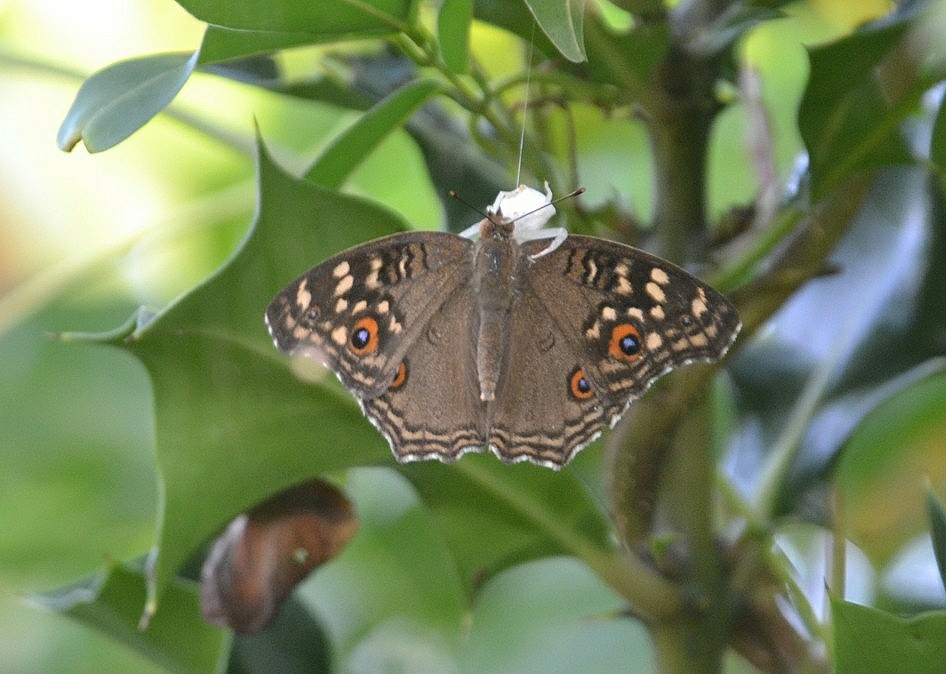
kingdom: Animalia
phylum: Arthropoda
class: Insecta
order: Lepidoptera
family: Nymphalidae
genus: Junonia
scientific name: Junonia lemonias
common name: Lemon pansy
